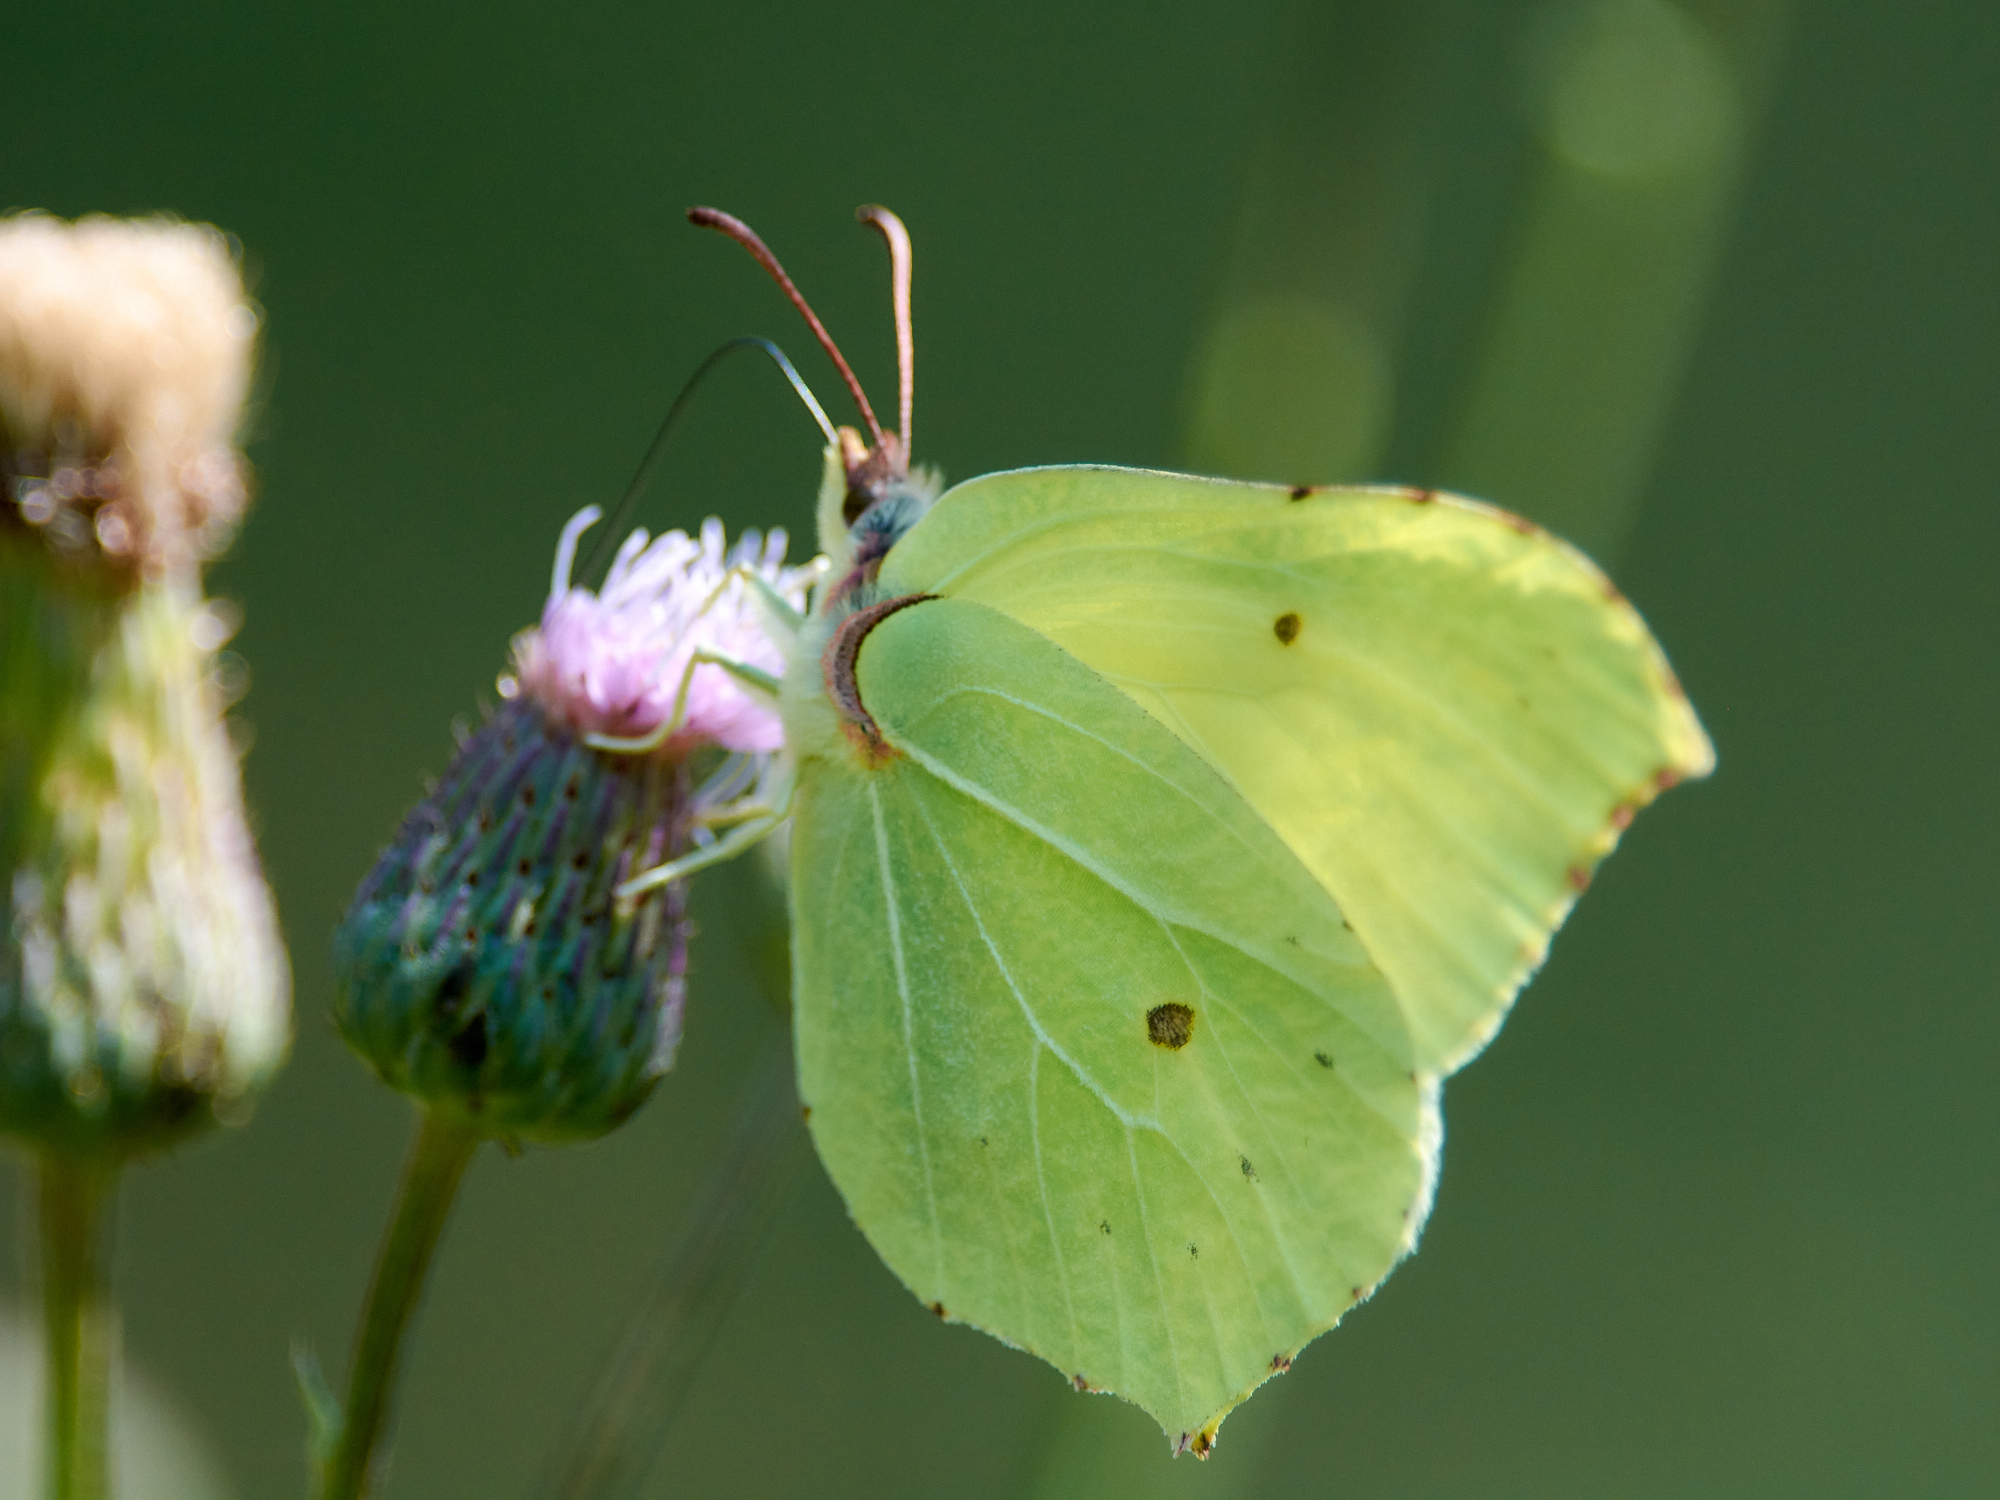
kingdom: Animalia
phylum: Arthropoda
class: Insecta
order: Lepidoptera
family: Pieridae
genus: Gonepteryx
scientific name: Gonepteryx rhamni
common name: Brimstone
